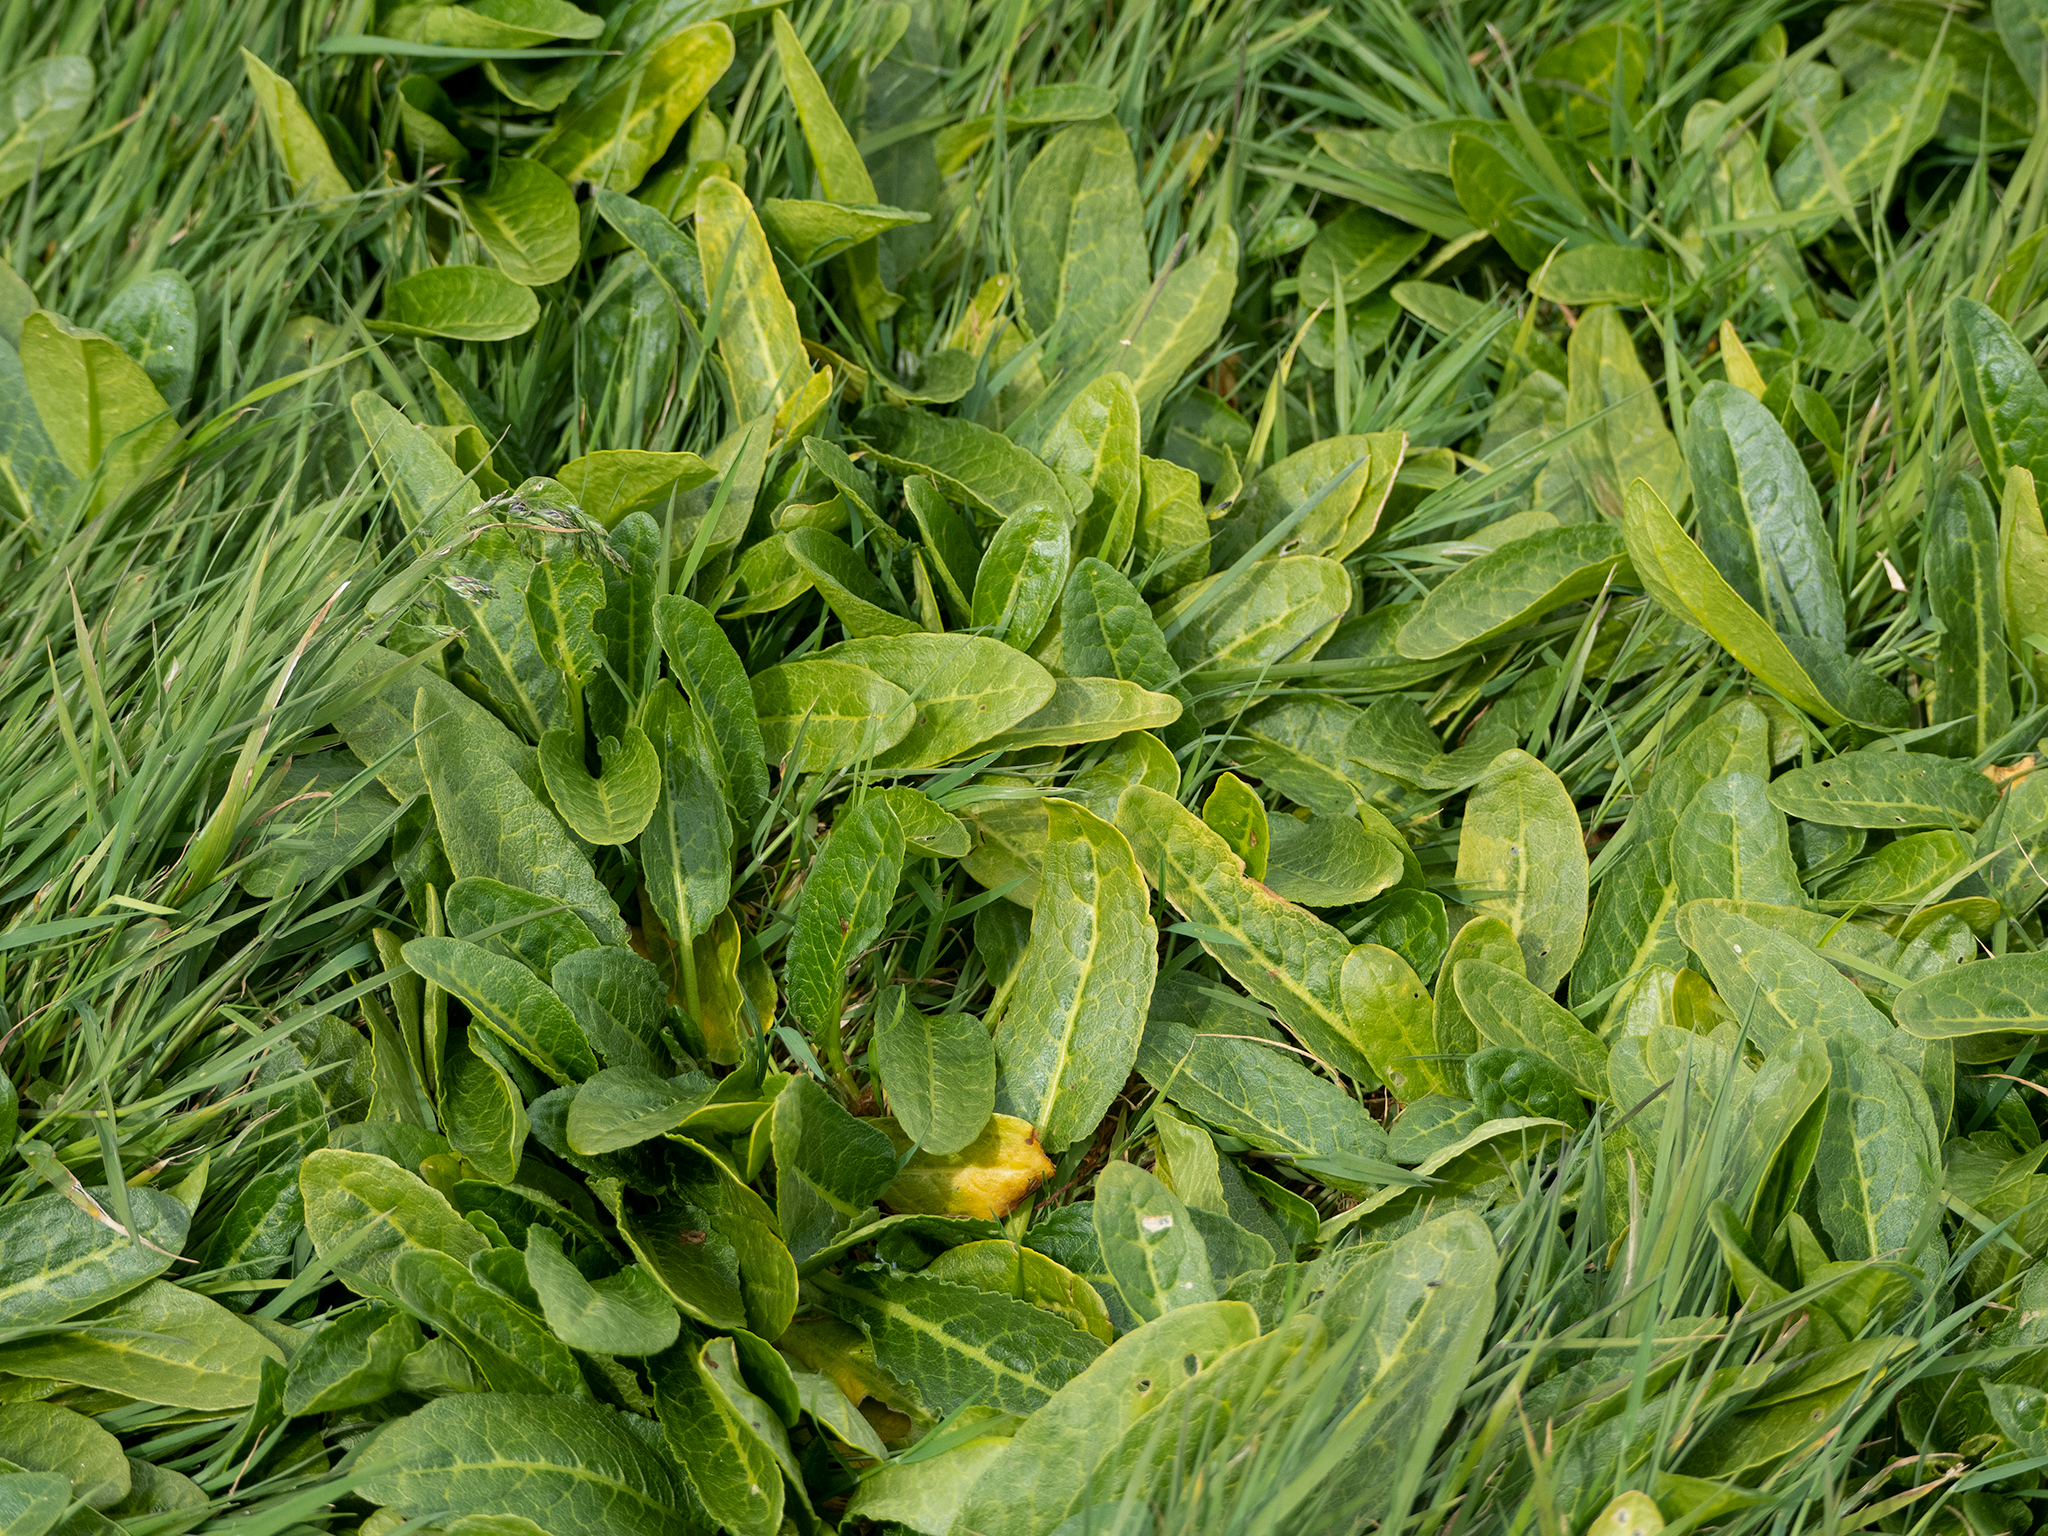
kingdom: Plantae
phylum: Tracheophyta
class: Magnoliopsida
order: Caryophyllales
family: Polygonaceae
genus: Rumex
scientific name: Rumex neglectus
